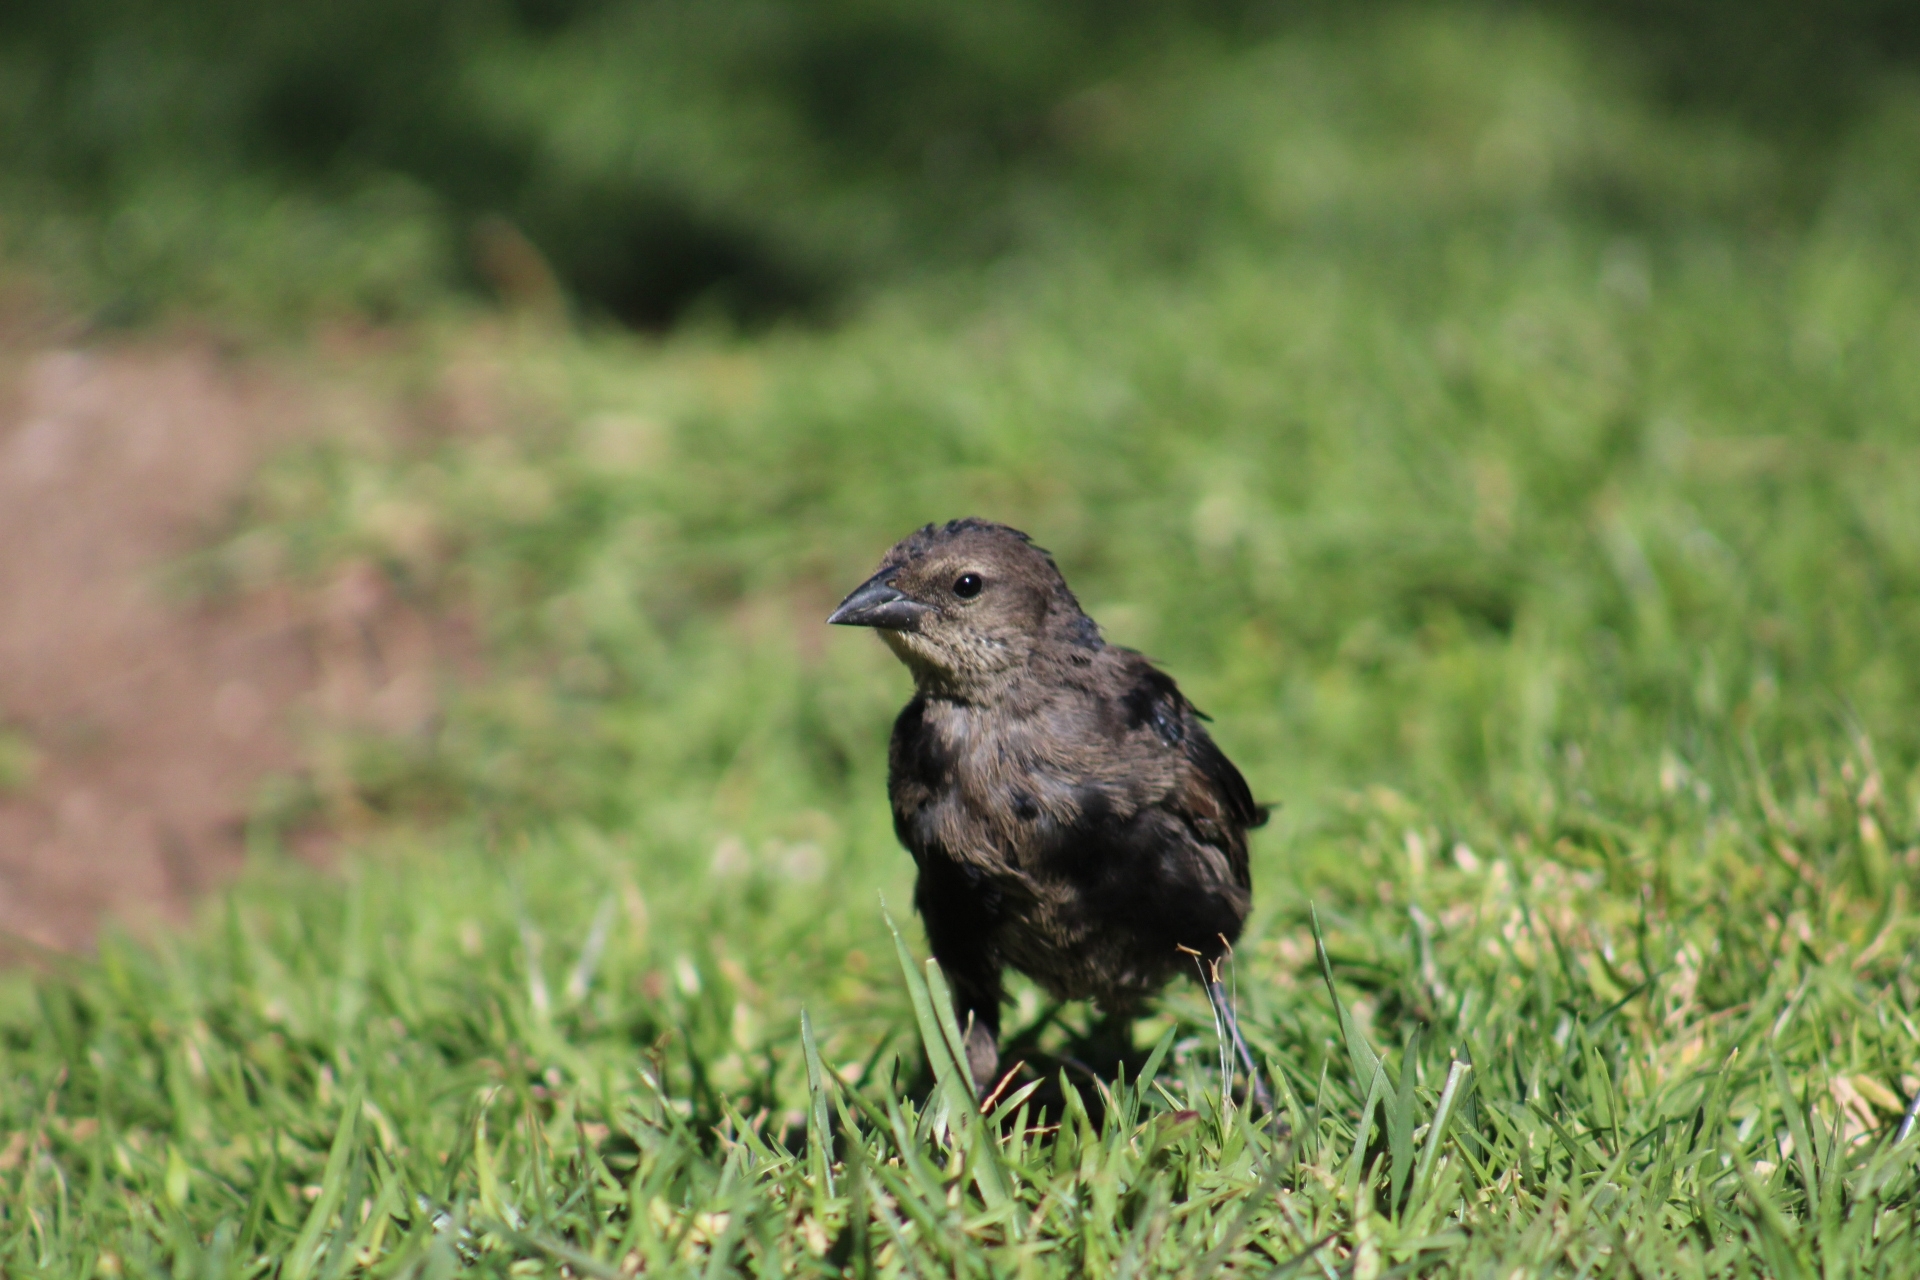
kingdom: Animalia
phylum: Chordata
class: Aves
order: Passeriformes
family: Icteridae
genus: Molothrus
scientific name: Molothrus bonariensis
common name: Shiny cowbird
